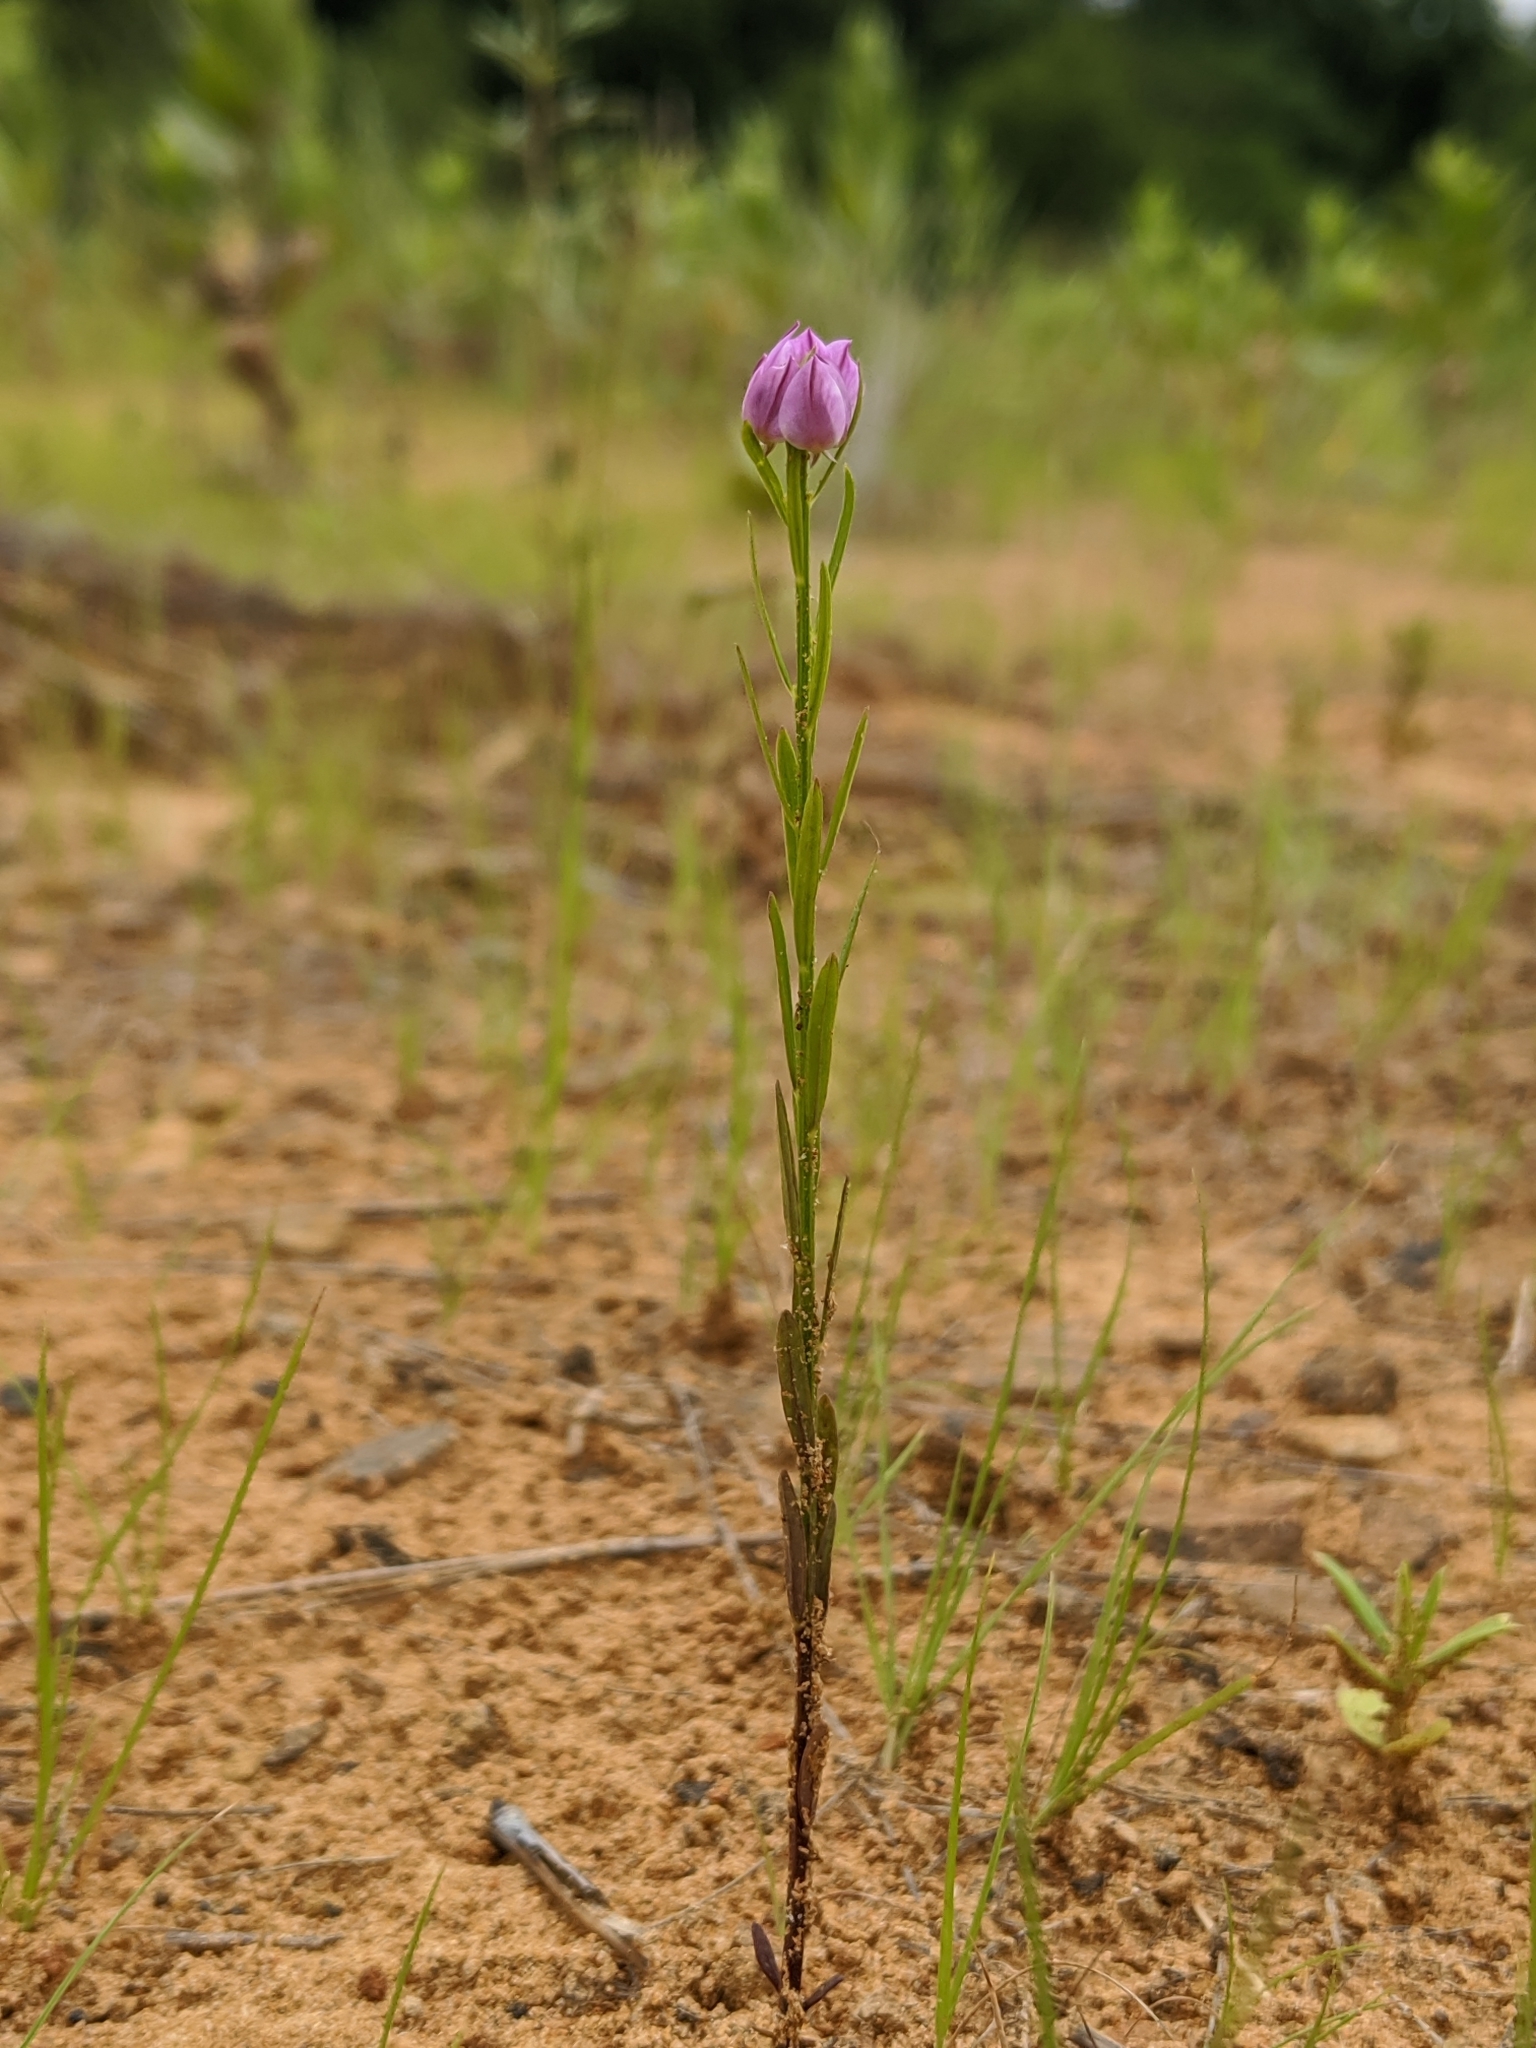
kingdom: Plantae
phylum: Tracheophyta
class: Magnoliopsida
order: Fabales
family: Polygalaceae
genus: Polygala
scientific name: Polygala sanguinea
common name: Blood milkwort
